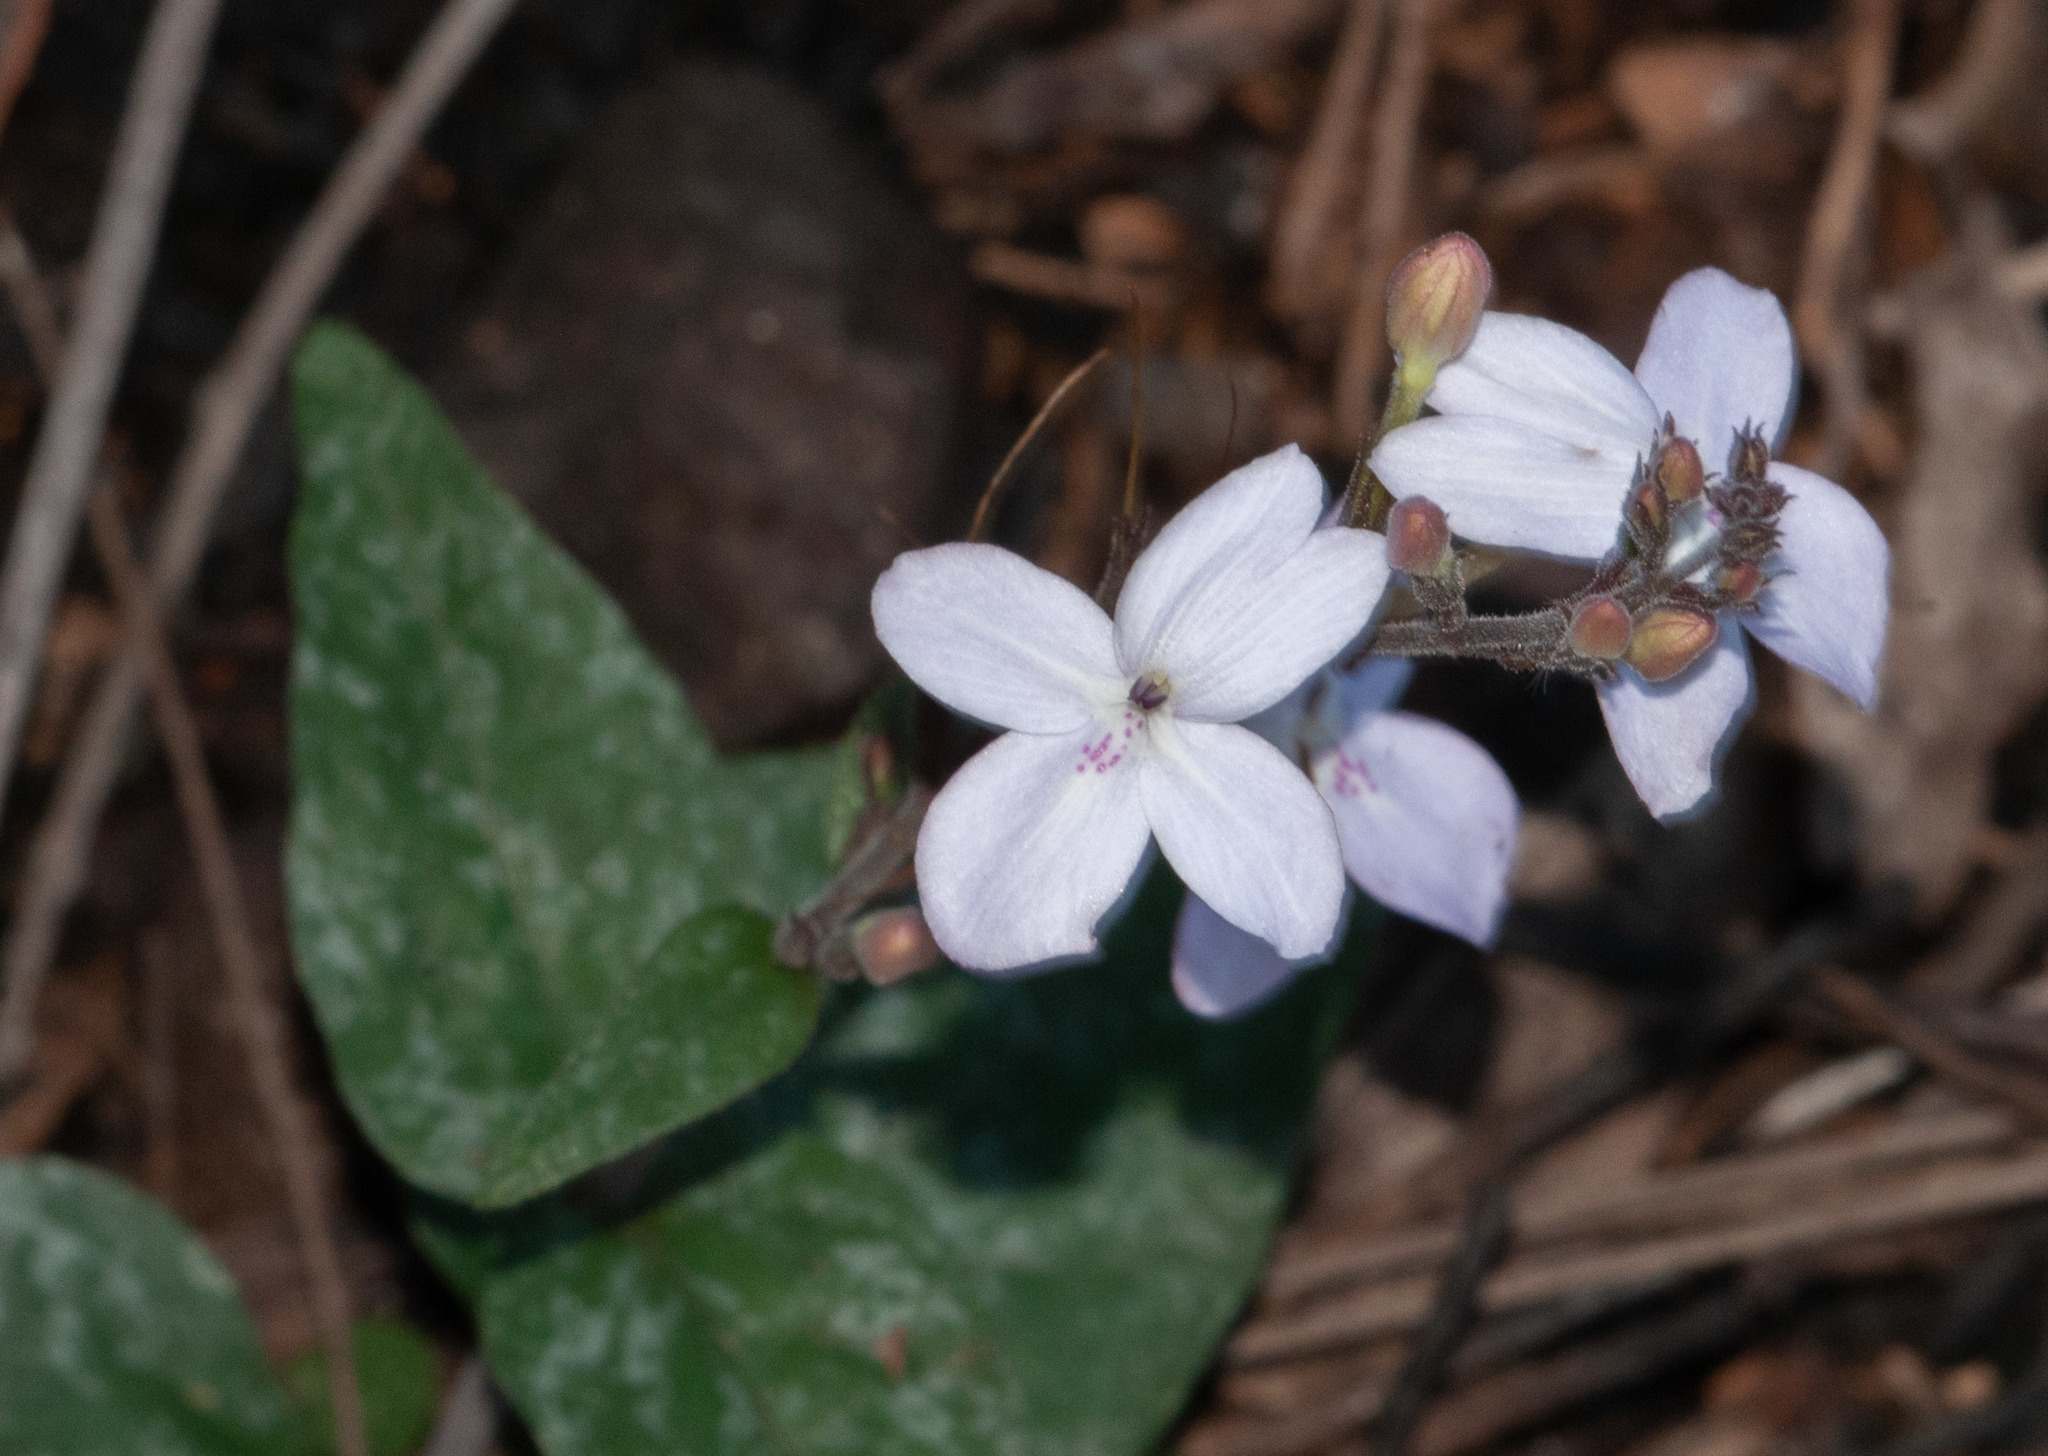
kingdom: Plantae
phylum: Tracheophyta
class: Magnoliopsida
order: Lamiales
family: Acanthaceae
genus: Pseuderanthemum
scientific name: Pseuderanthemum variabile
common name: Night and afternoon
